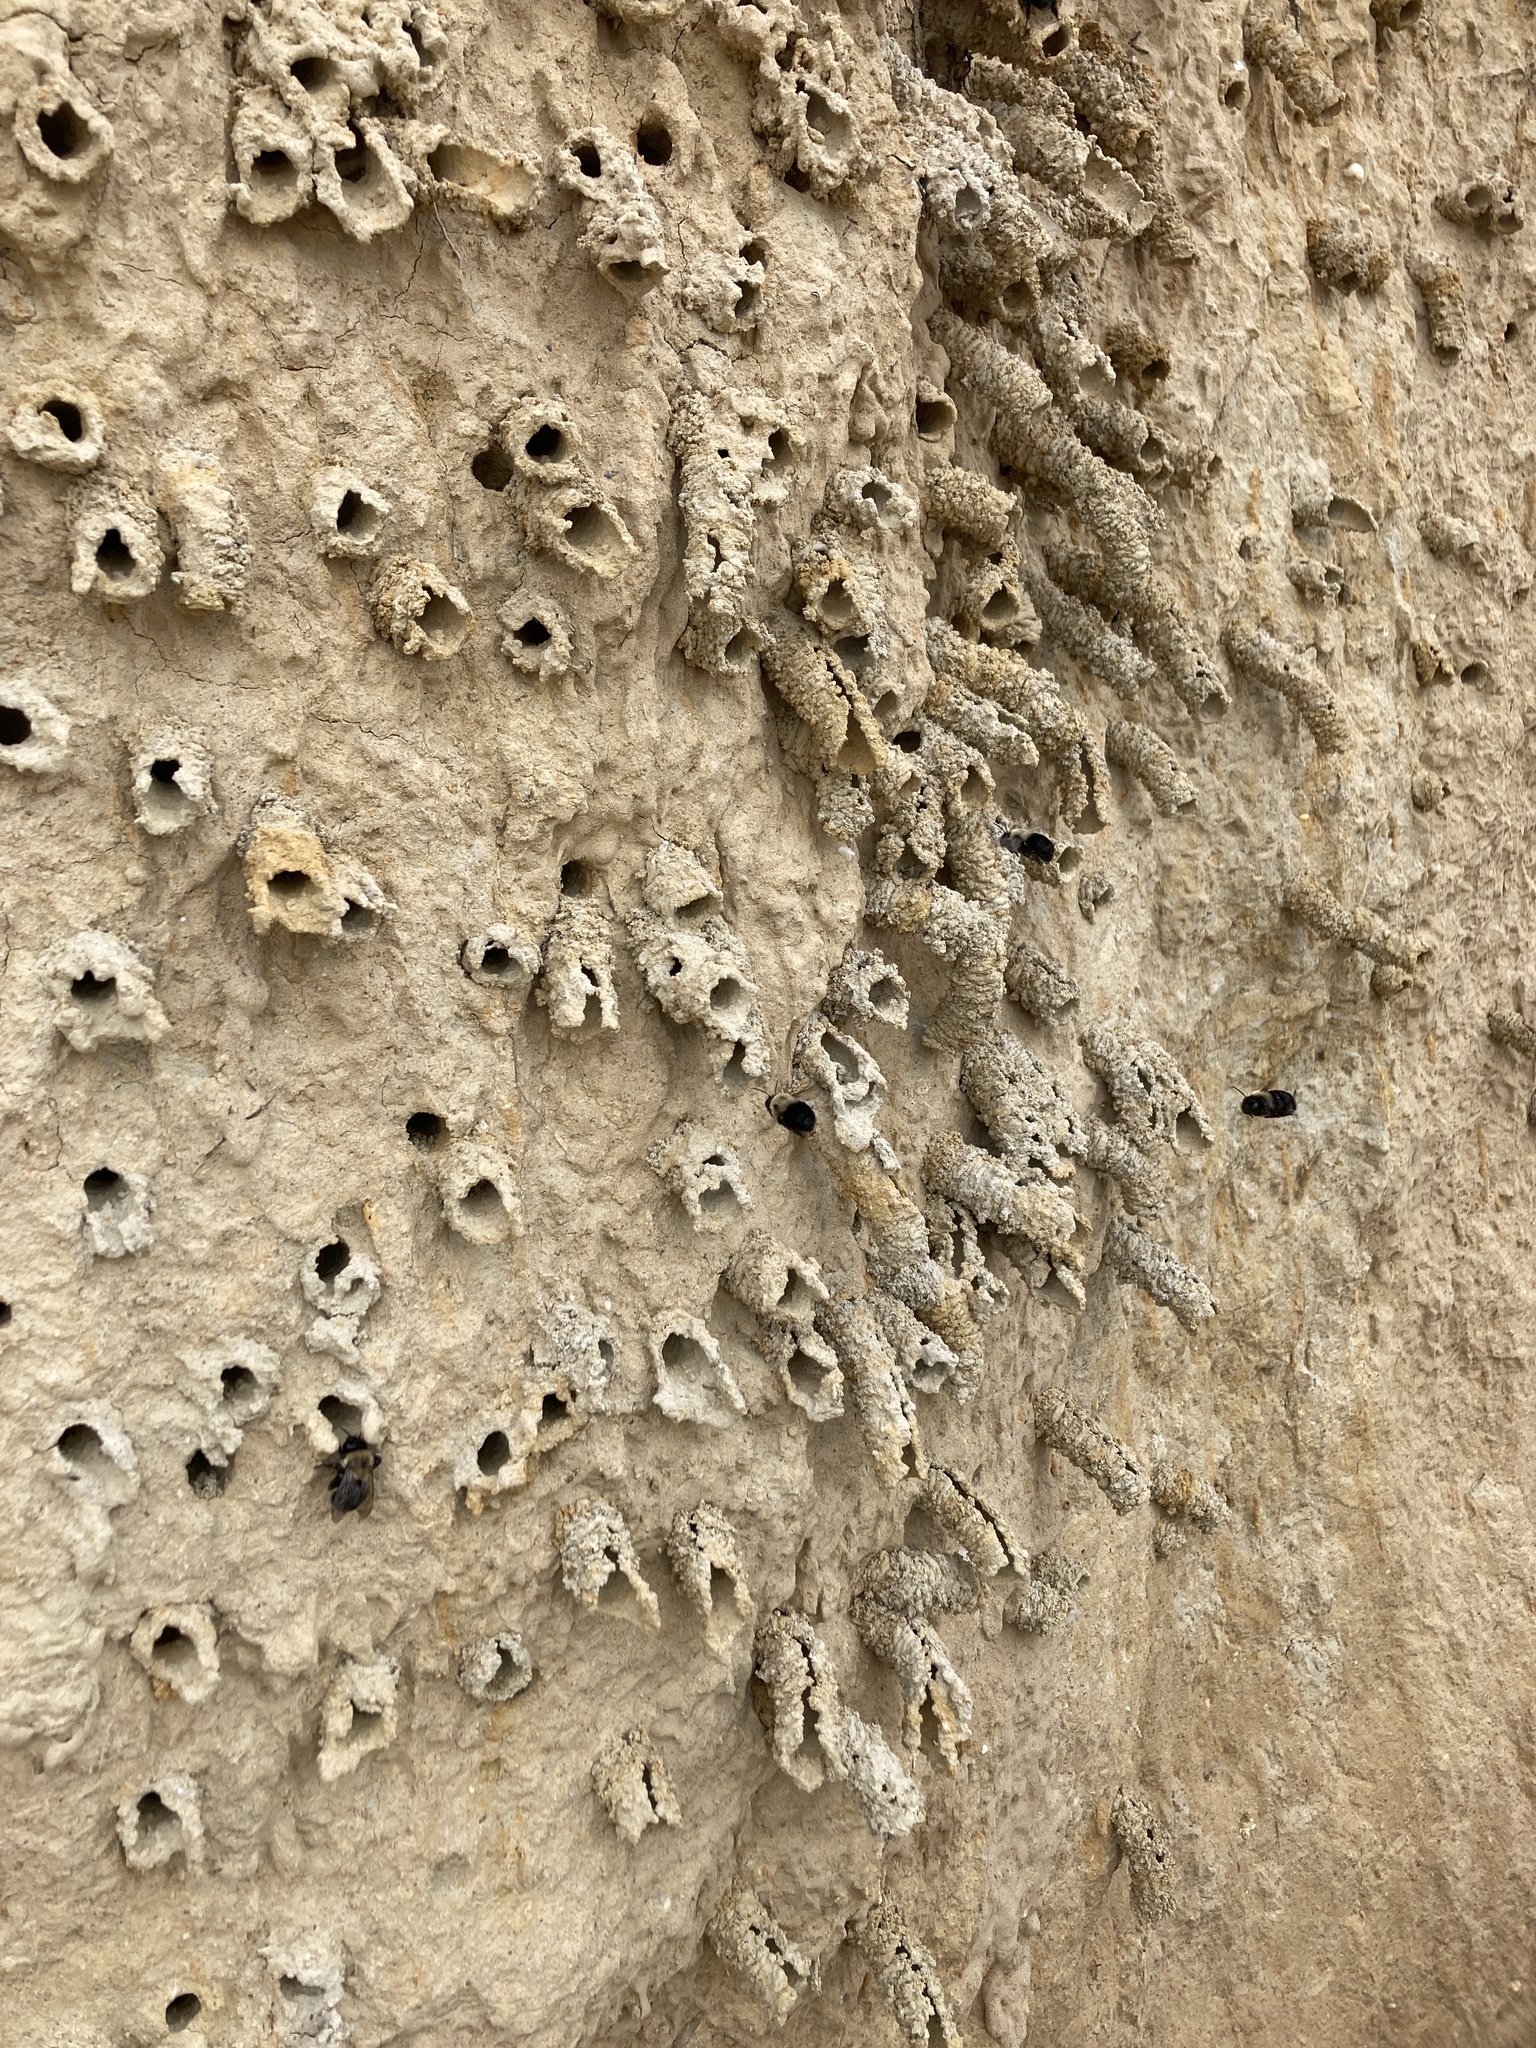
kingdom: Animalia
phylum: Arthropoda
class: Insecta
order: Hymenoptera
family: Apidae
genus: Anthophora
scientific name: Anthophora abrupta
